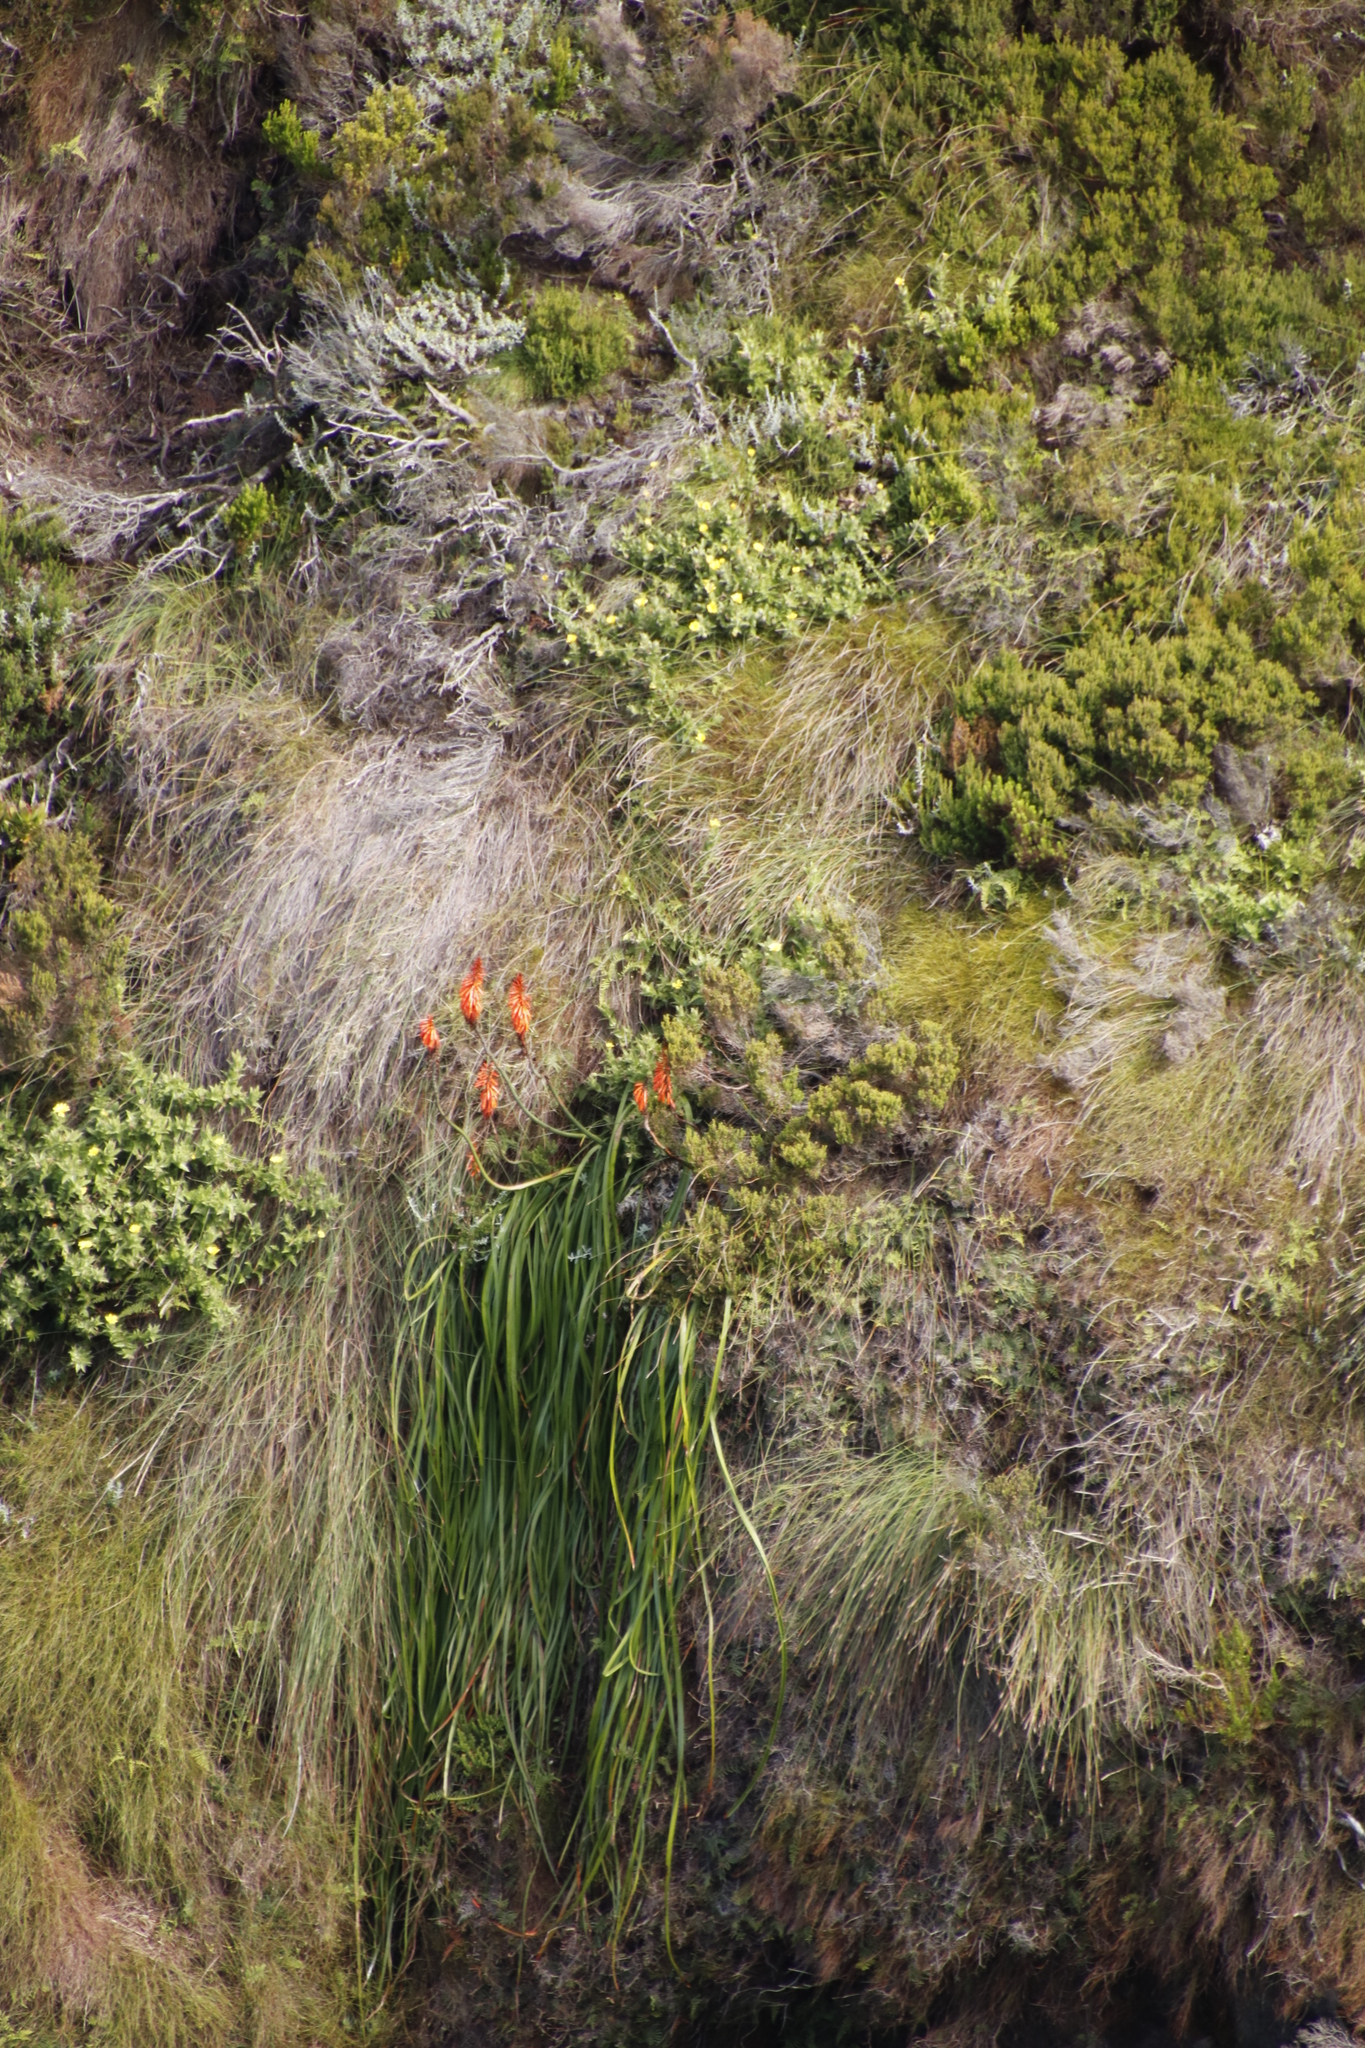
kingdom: Plantae
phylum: Tracheophyta
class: Liliopsida
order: Asparagales
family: Asphodelaceae
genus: Kniphofia
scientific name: Kniphofia tabularis
